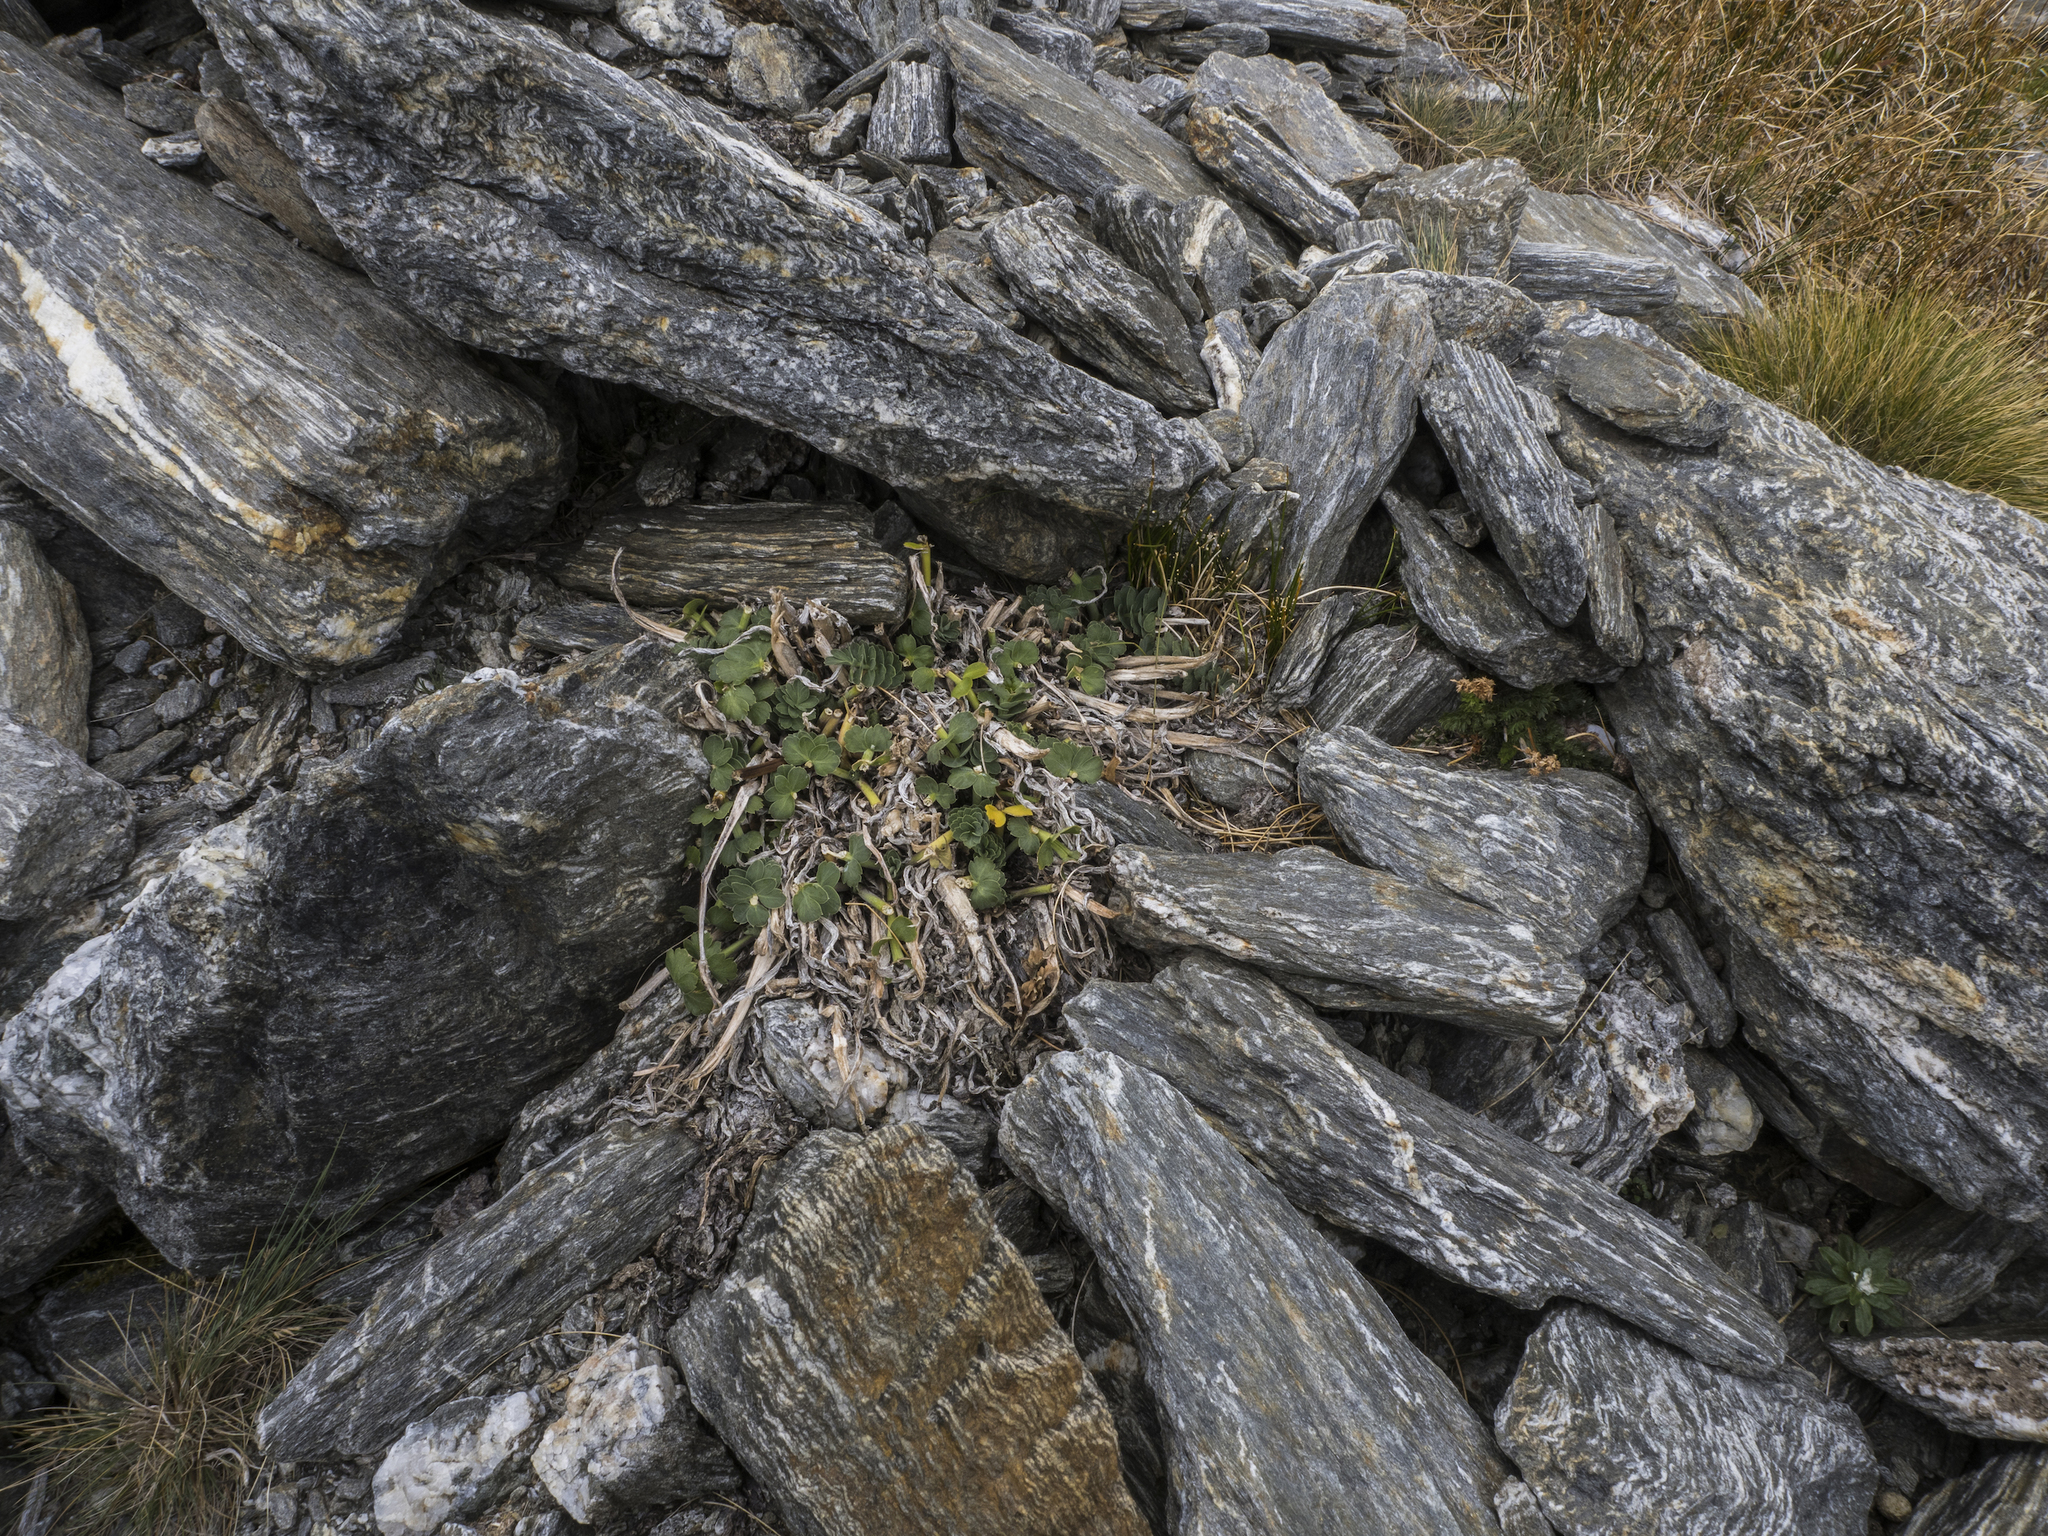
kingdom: Plantae
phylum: Tracheophyta
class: Magnoliopsida
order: Apiales
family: Apiaceae
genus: Anisotome
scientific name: Anisotome pilifera
